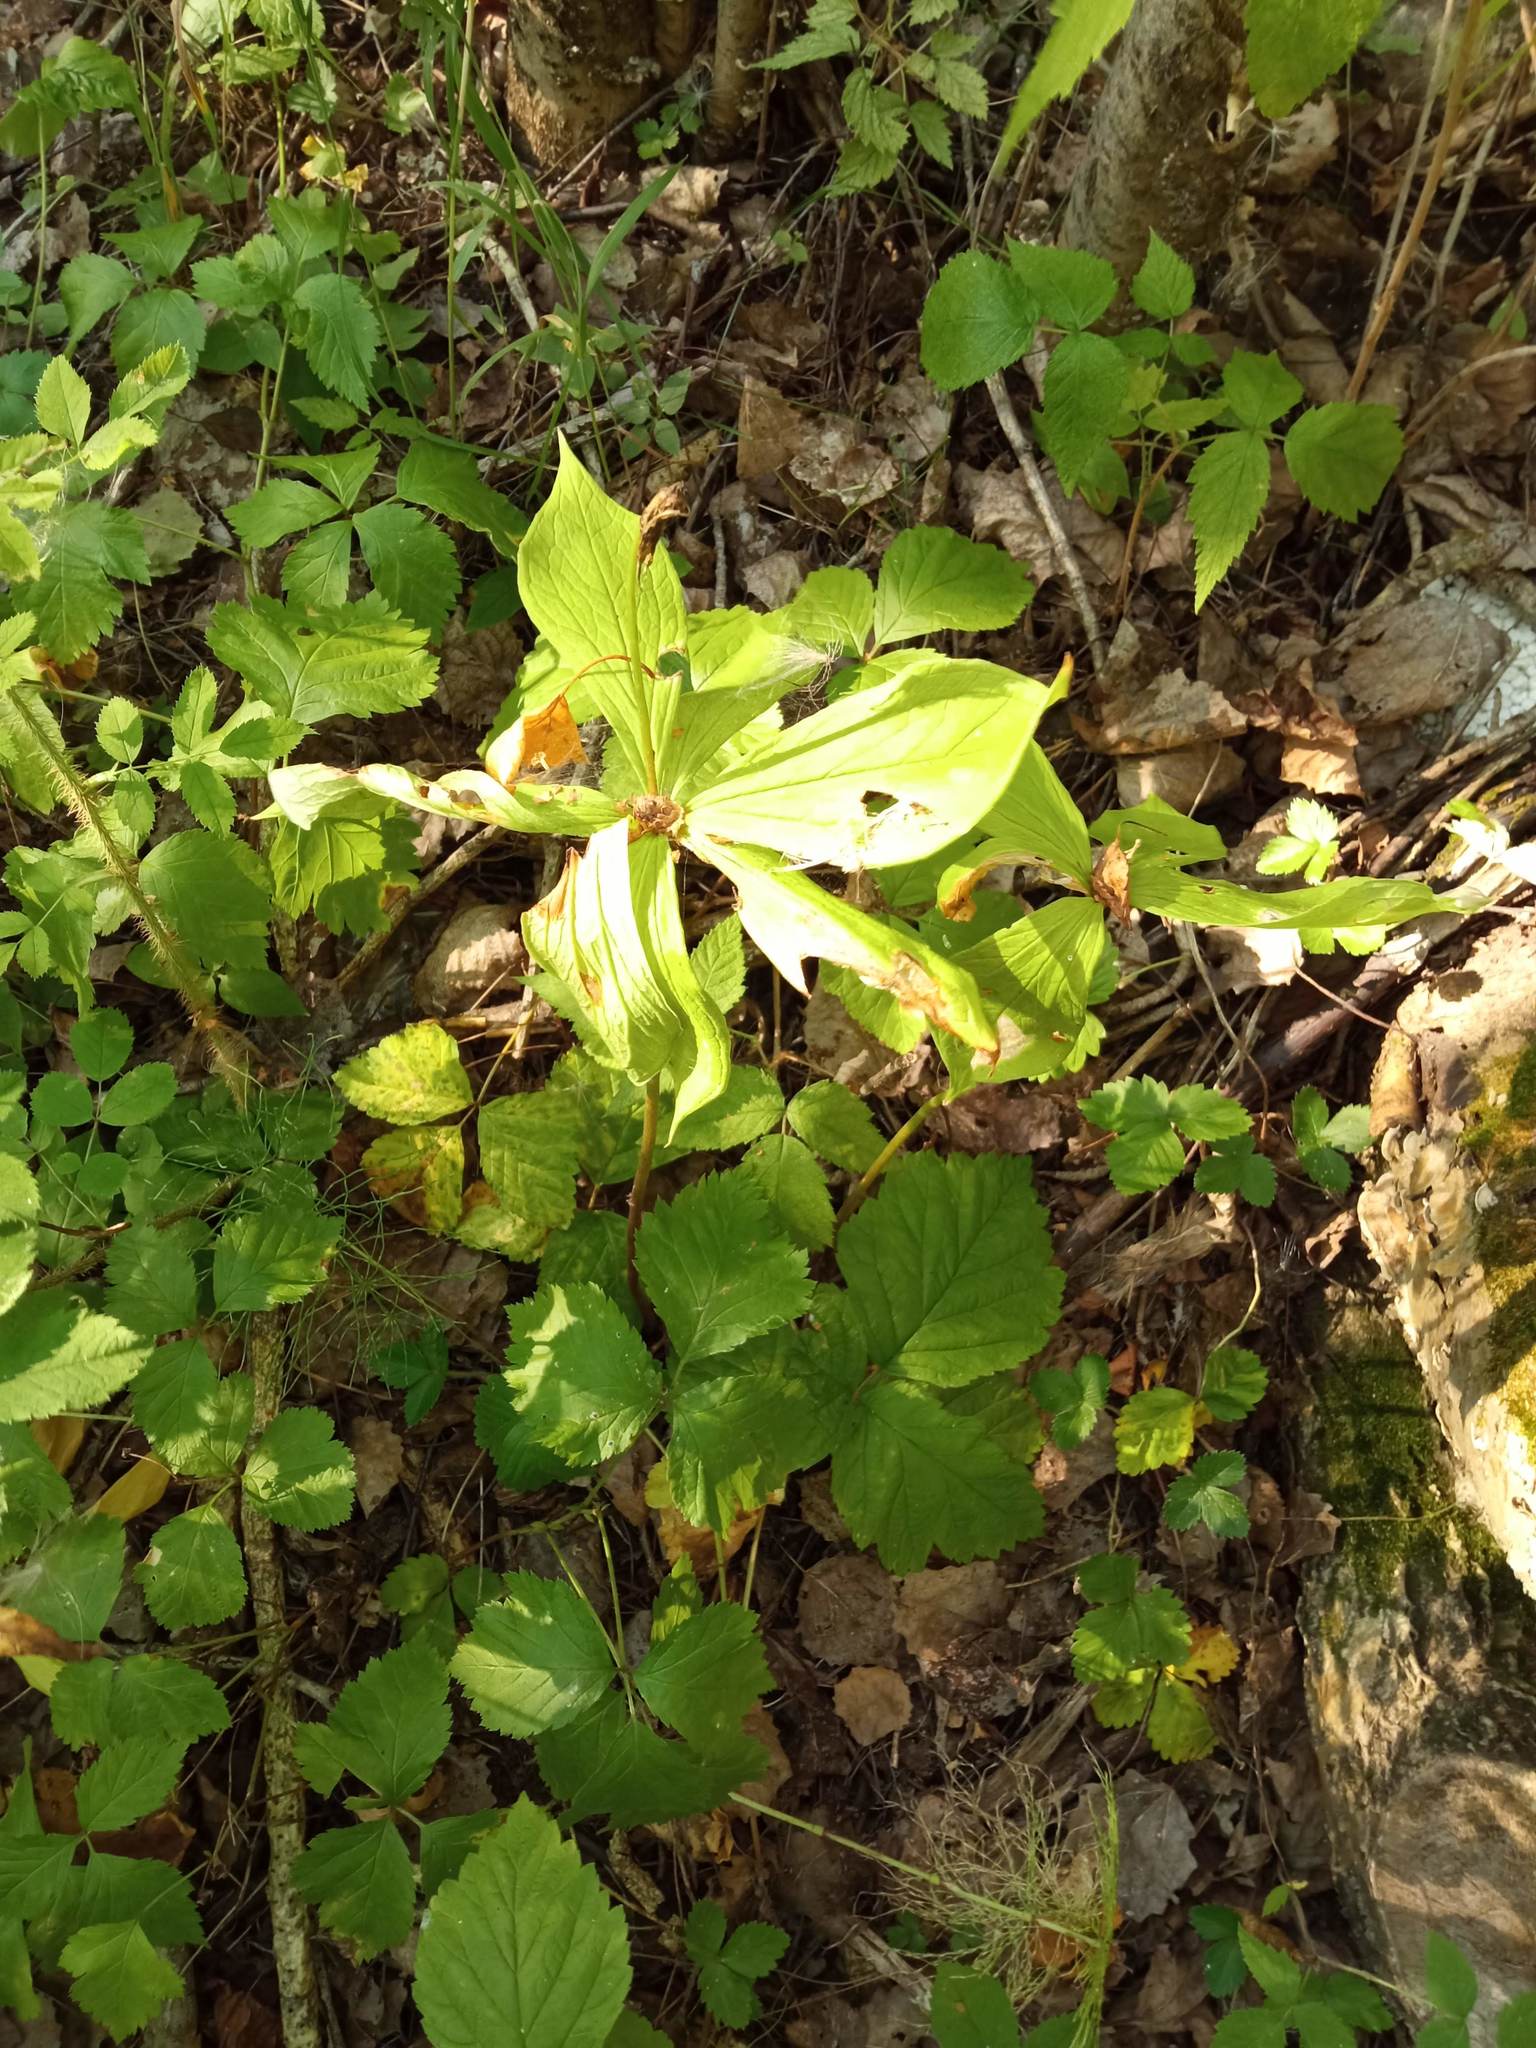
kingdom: Plantae
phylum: Tracheophyta
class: Liliopsida
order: Liliales
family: Melanthiaceae
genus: Paris
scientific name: Paris quadrifolia
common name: Herb-paris
